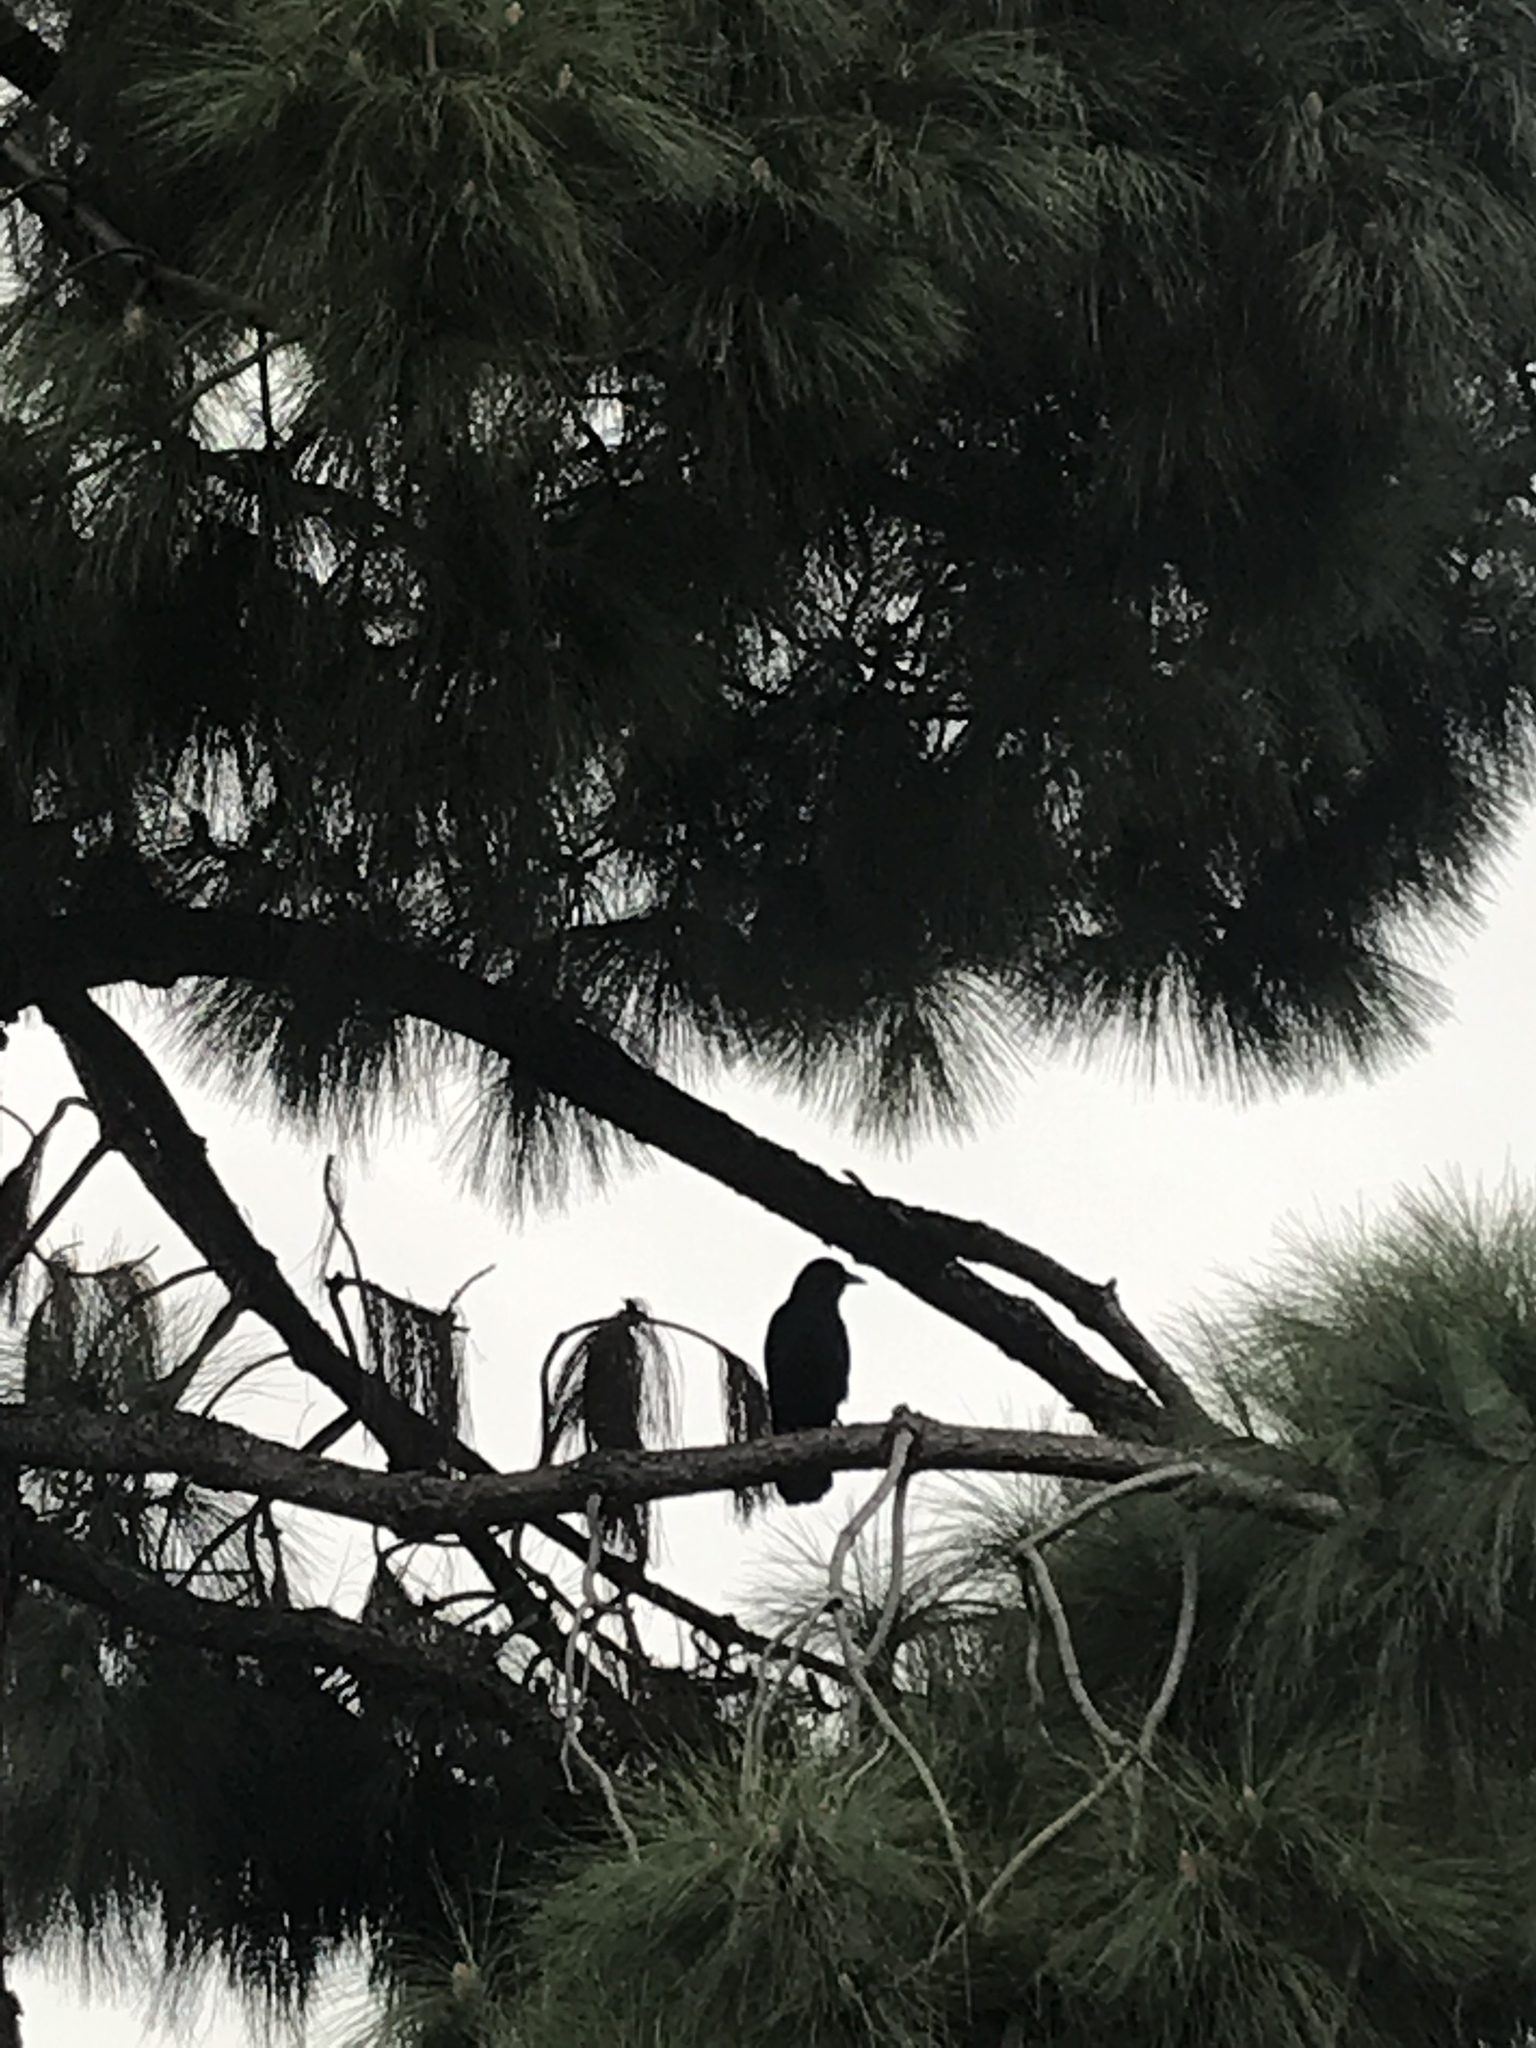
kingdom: Animalia
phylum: Chordata
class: Aves
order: Passeriformes
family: Corvidae
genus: Corvus
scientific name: Corvus brachyrhynchos
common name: American crow
